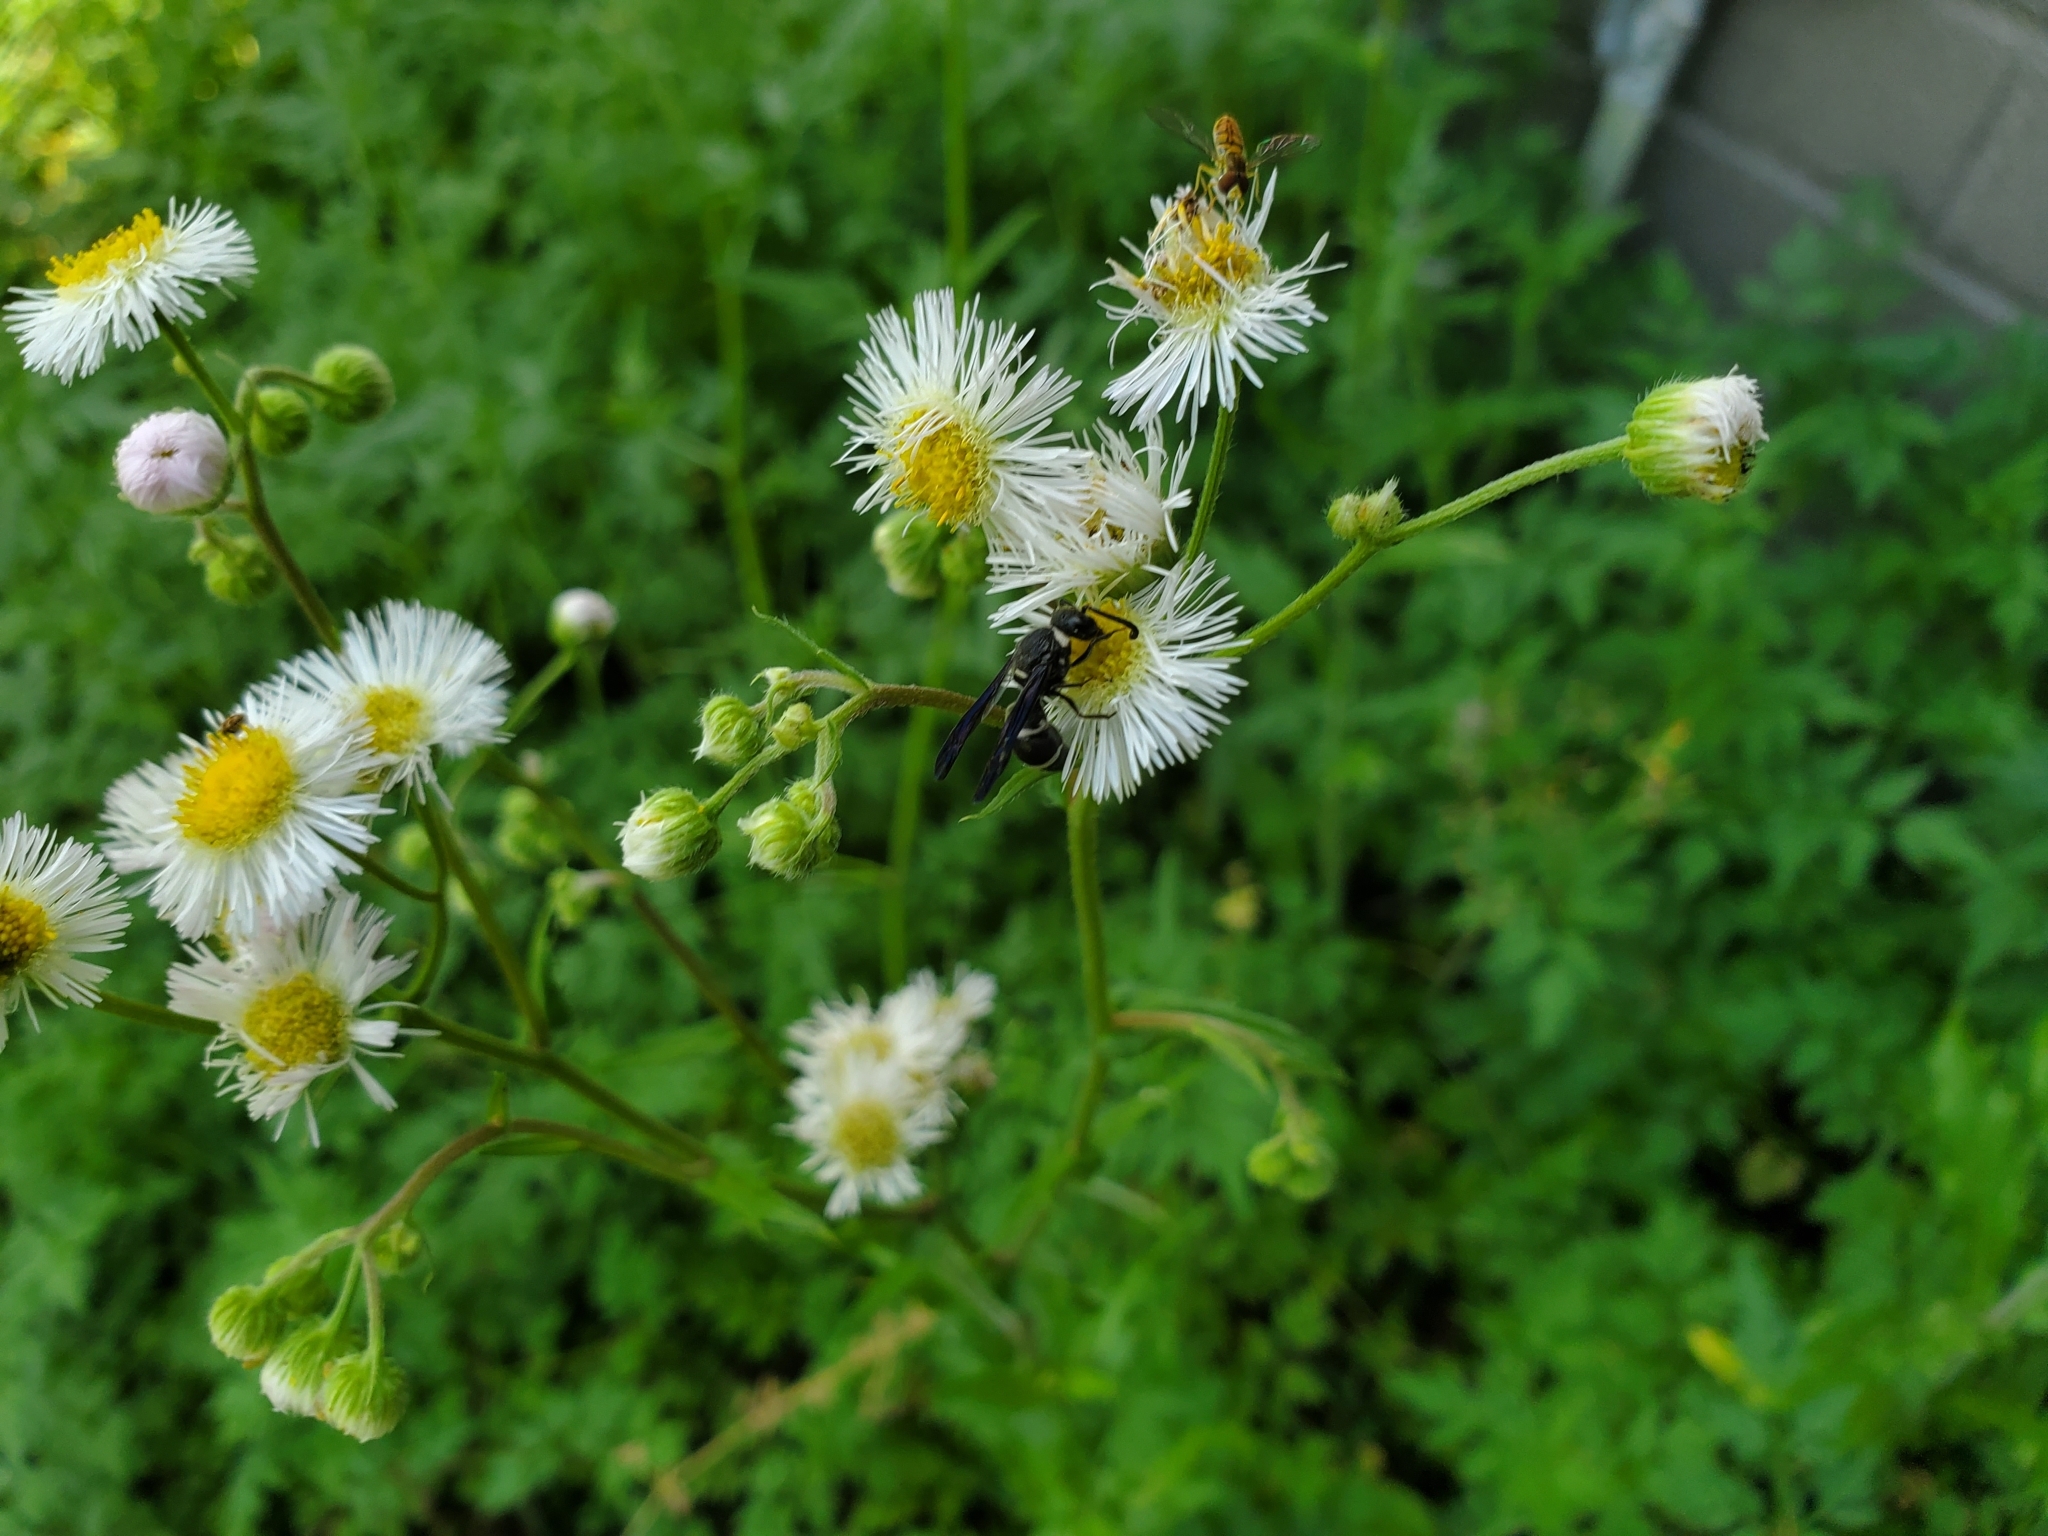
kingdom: Animalia
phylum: Arthropoda
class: Insecta
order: Hymenoptera
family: Eumenidae
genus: Euodynerus
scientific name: Euodynerus megaera
